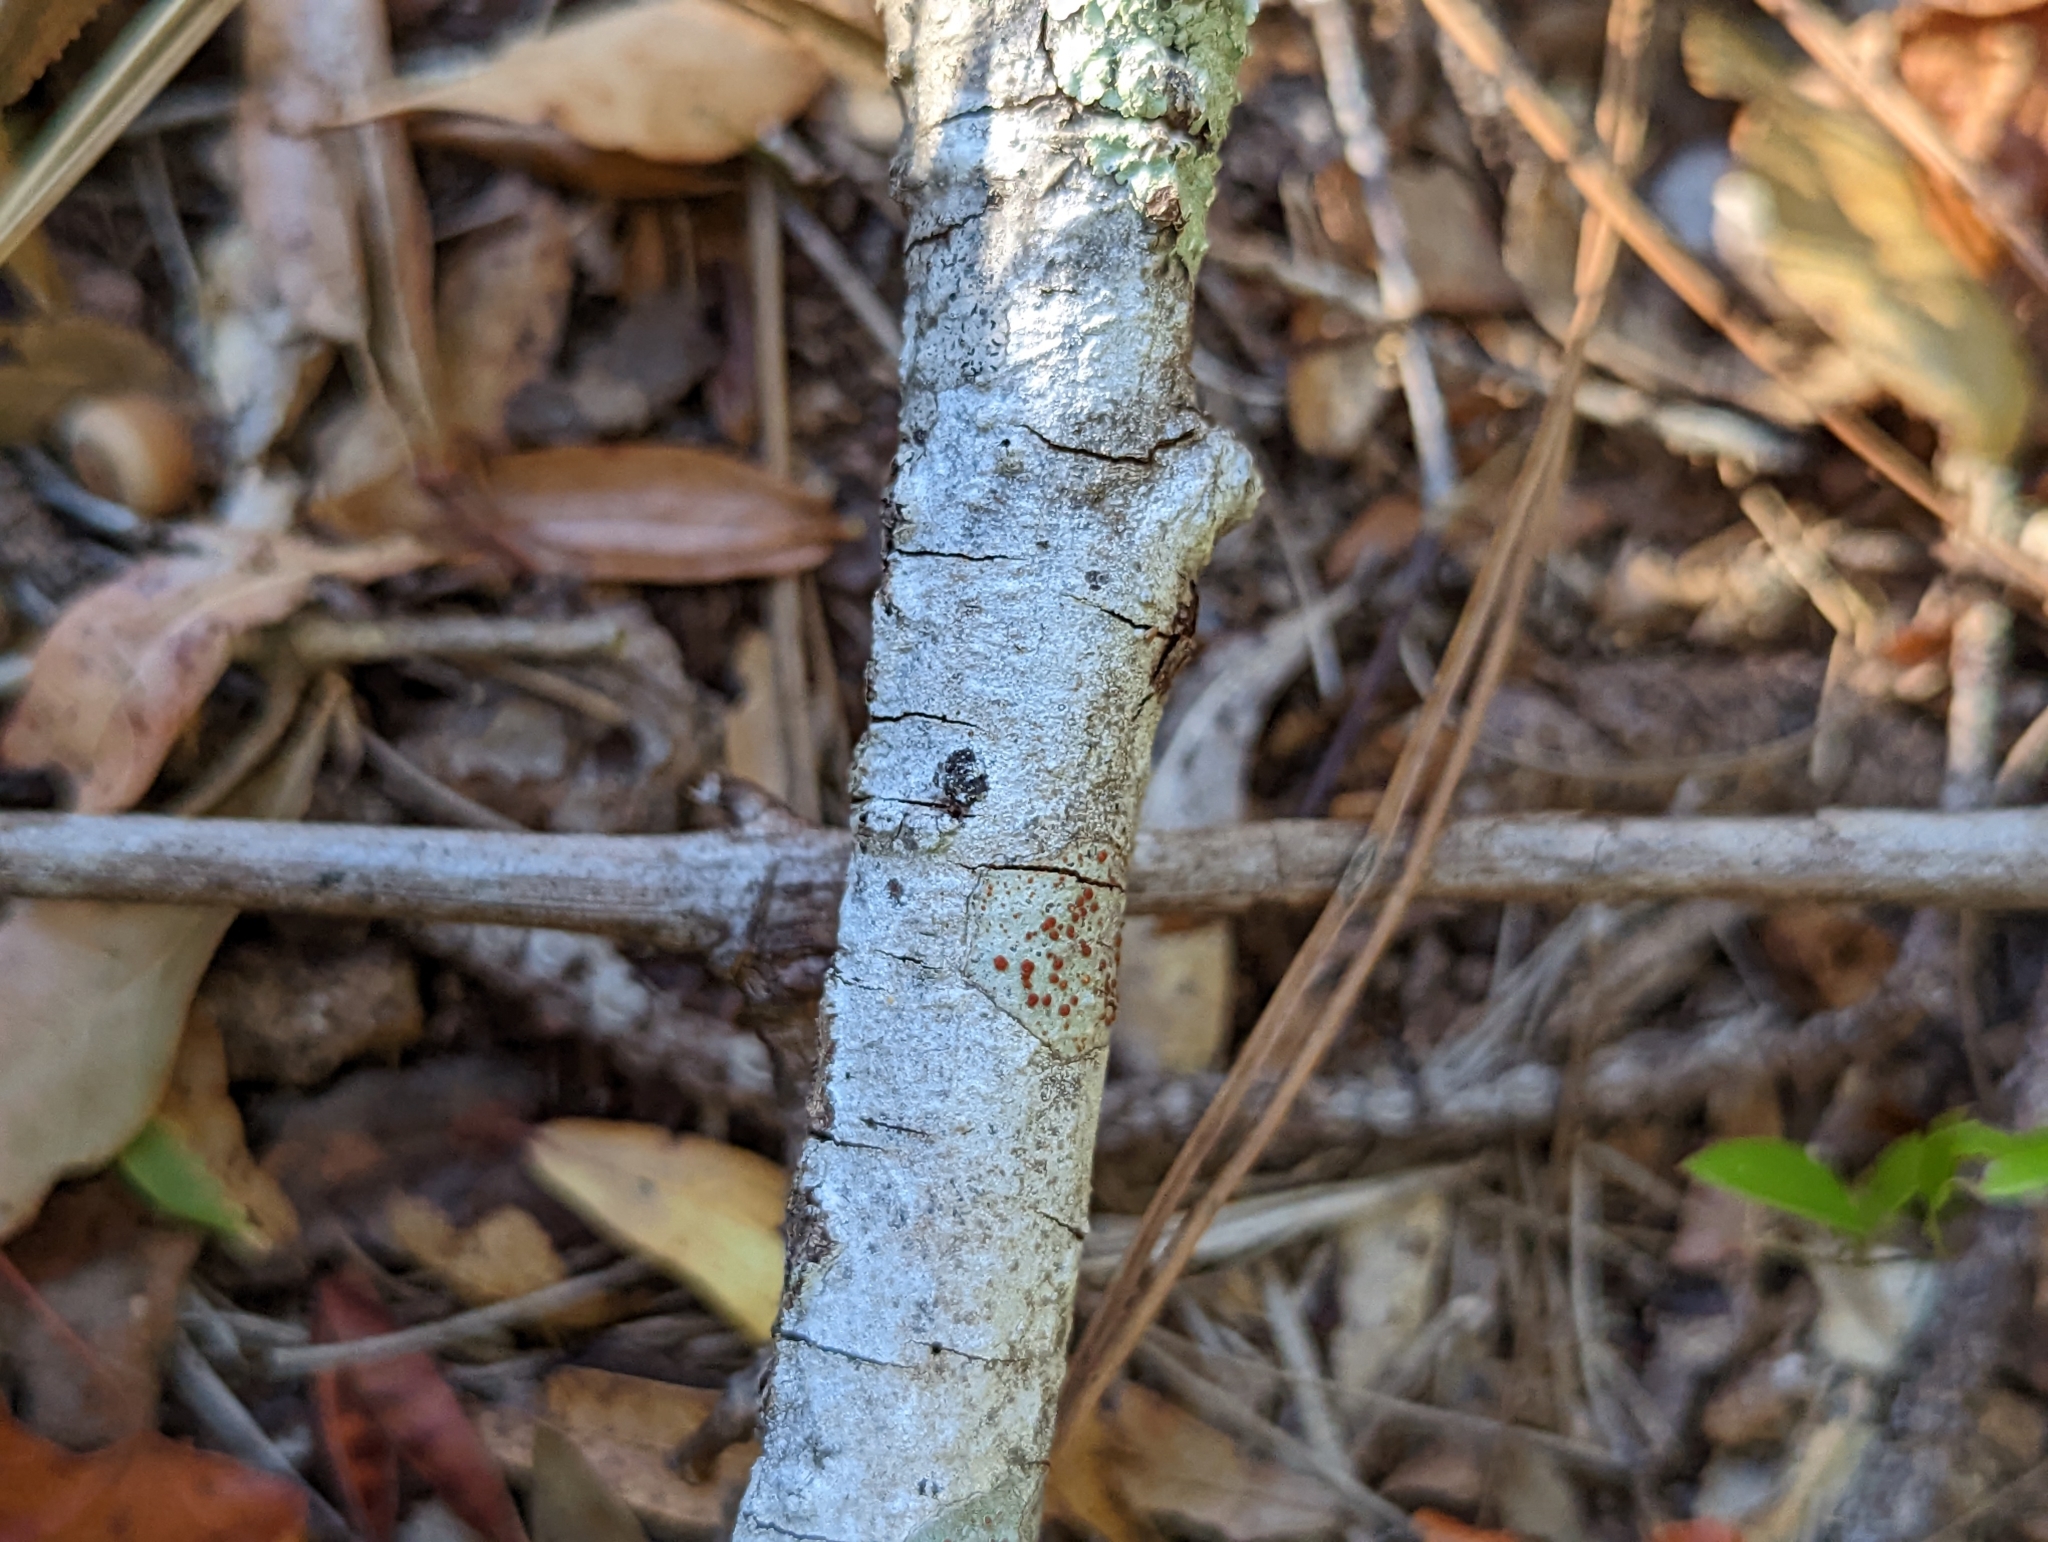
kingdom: Fungi
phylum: Ascomycota
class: Lecanoromycetes
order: Lecanorales
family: Ramboldiaceae
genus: Ramboldia
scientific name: Ramboldia russula
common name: Red heads
